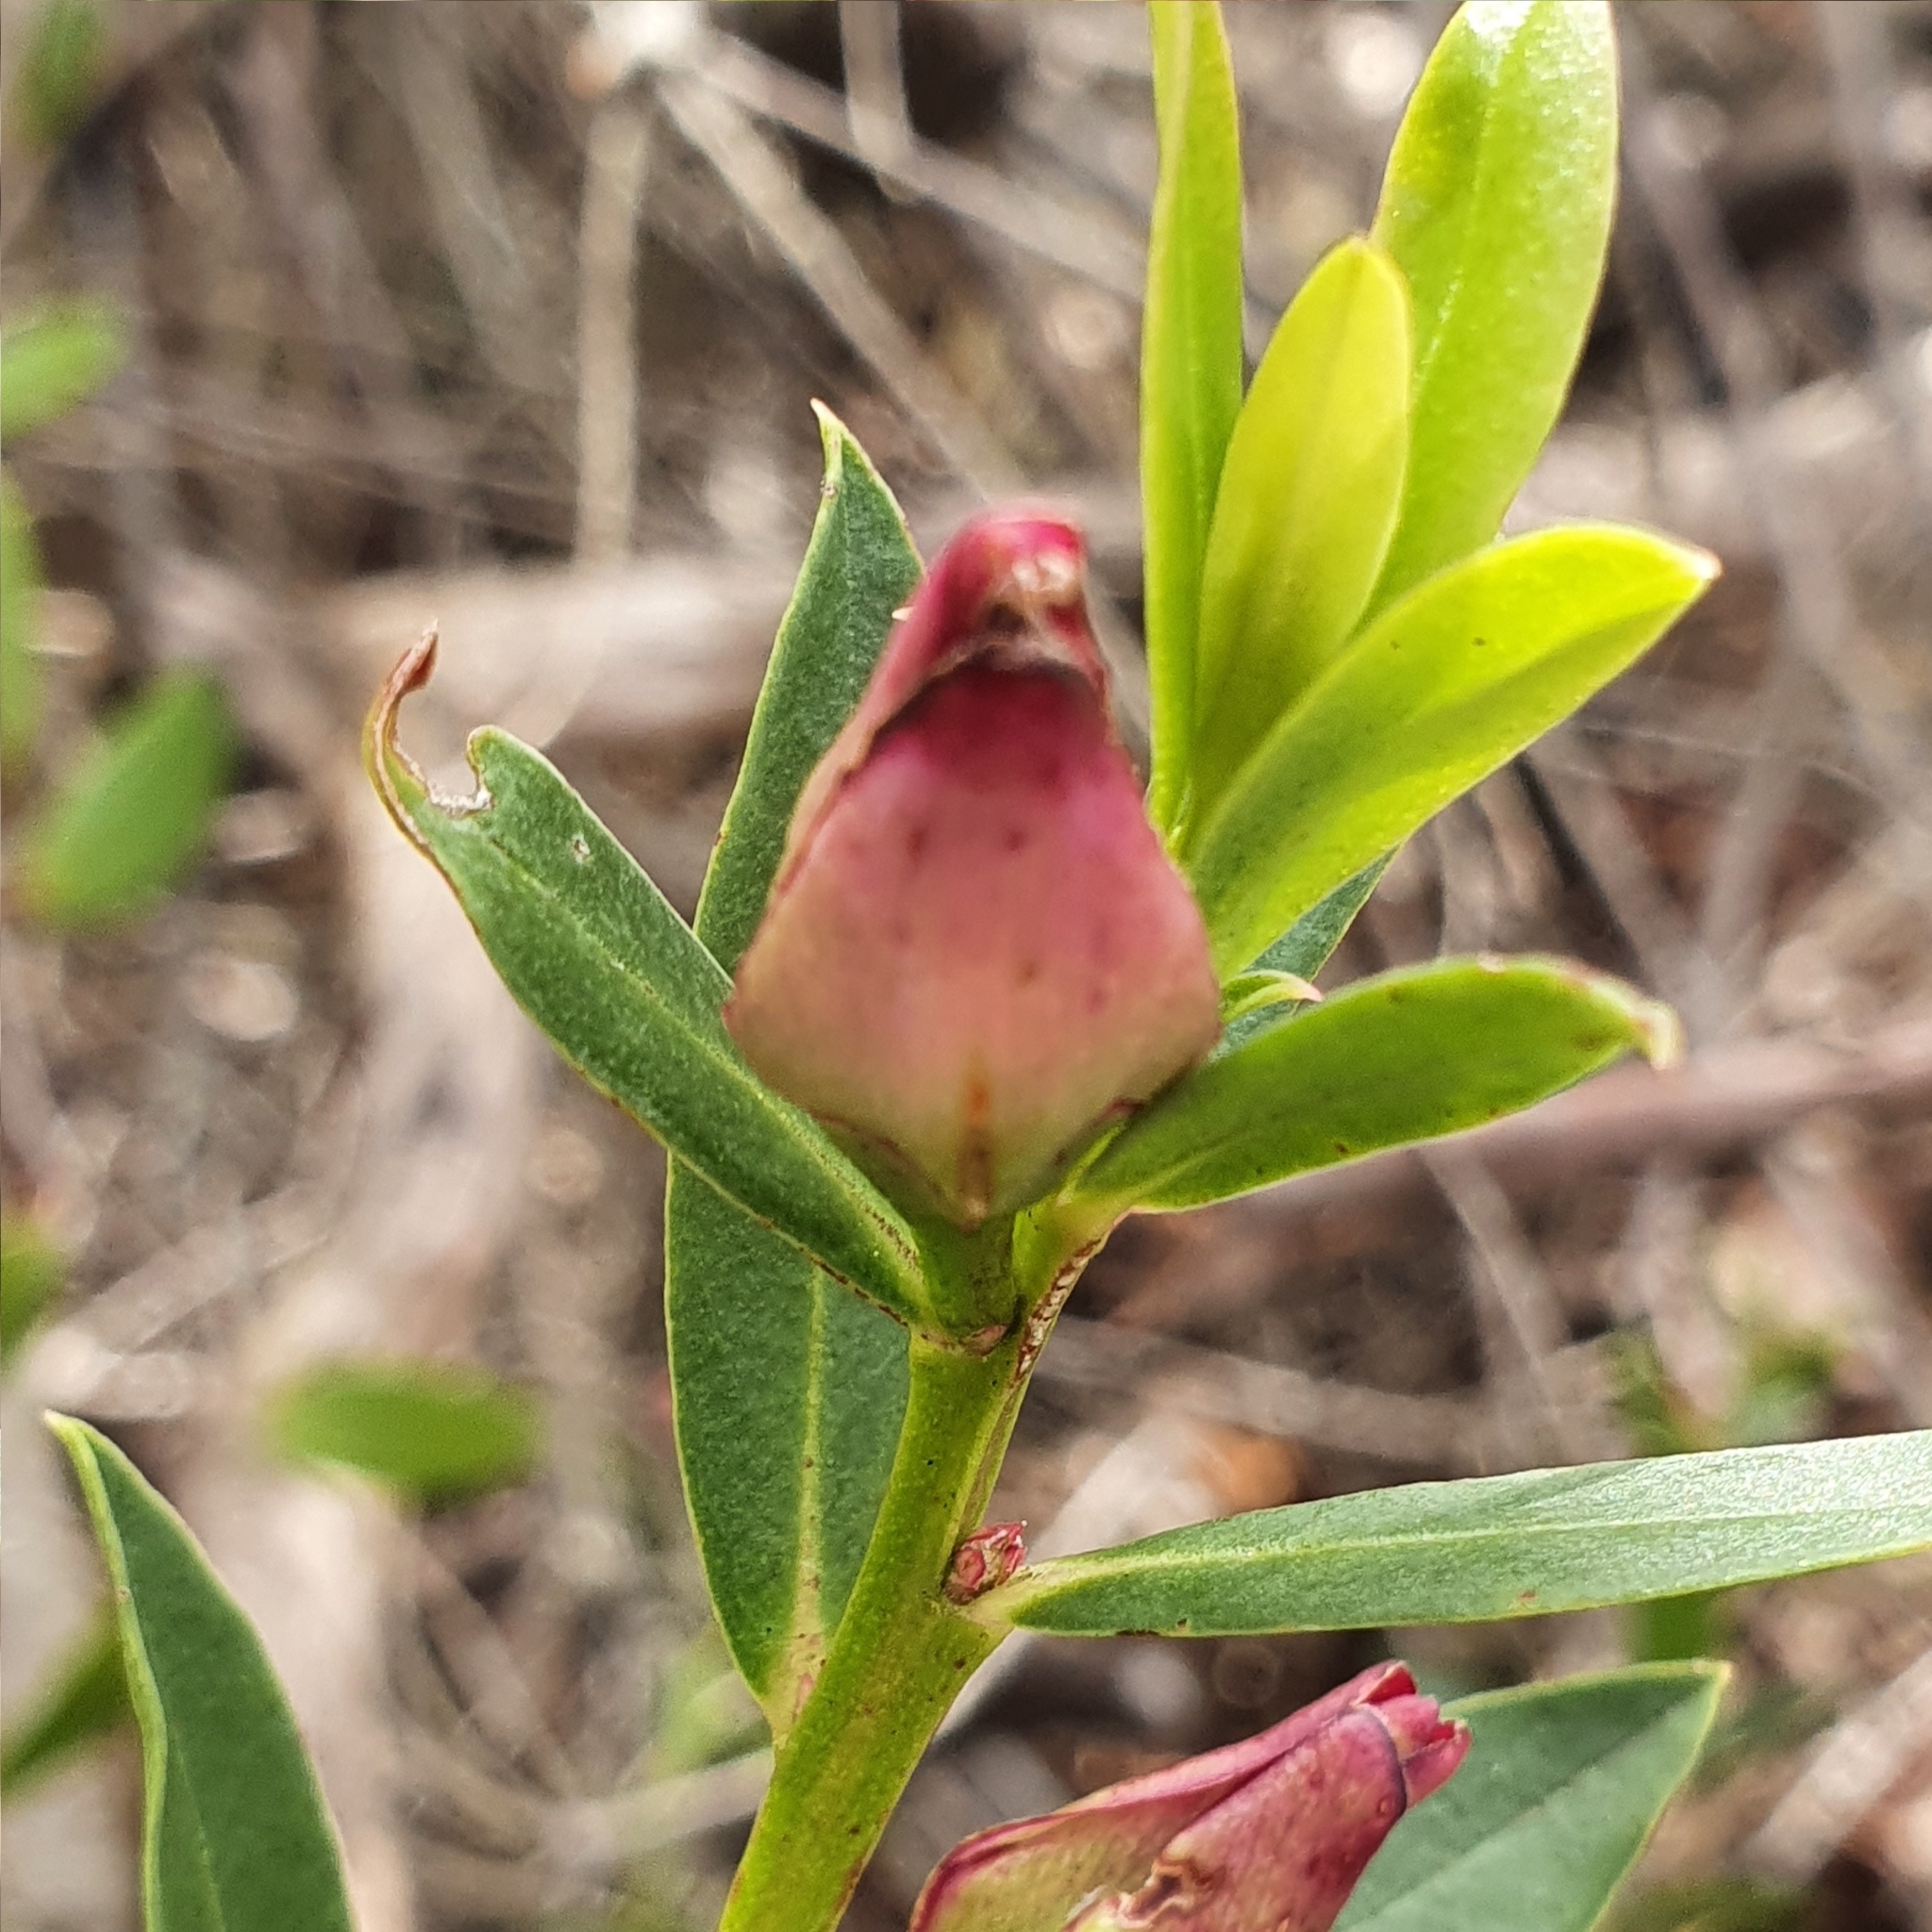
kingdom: Plantae
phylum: Tracheophyta
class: Magnoliopsida
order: Sapindales
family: Rutaceae
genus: Crowea
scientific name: Crowea saligna
